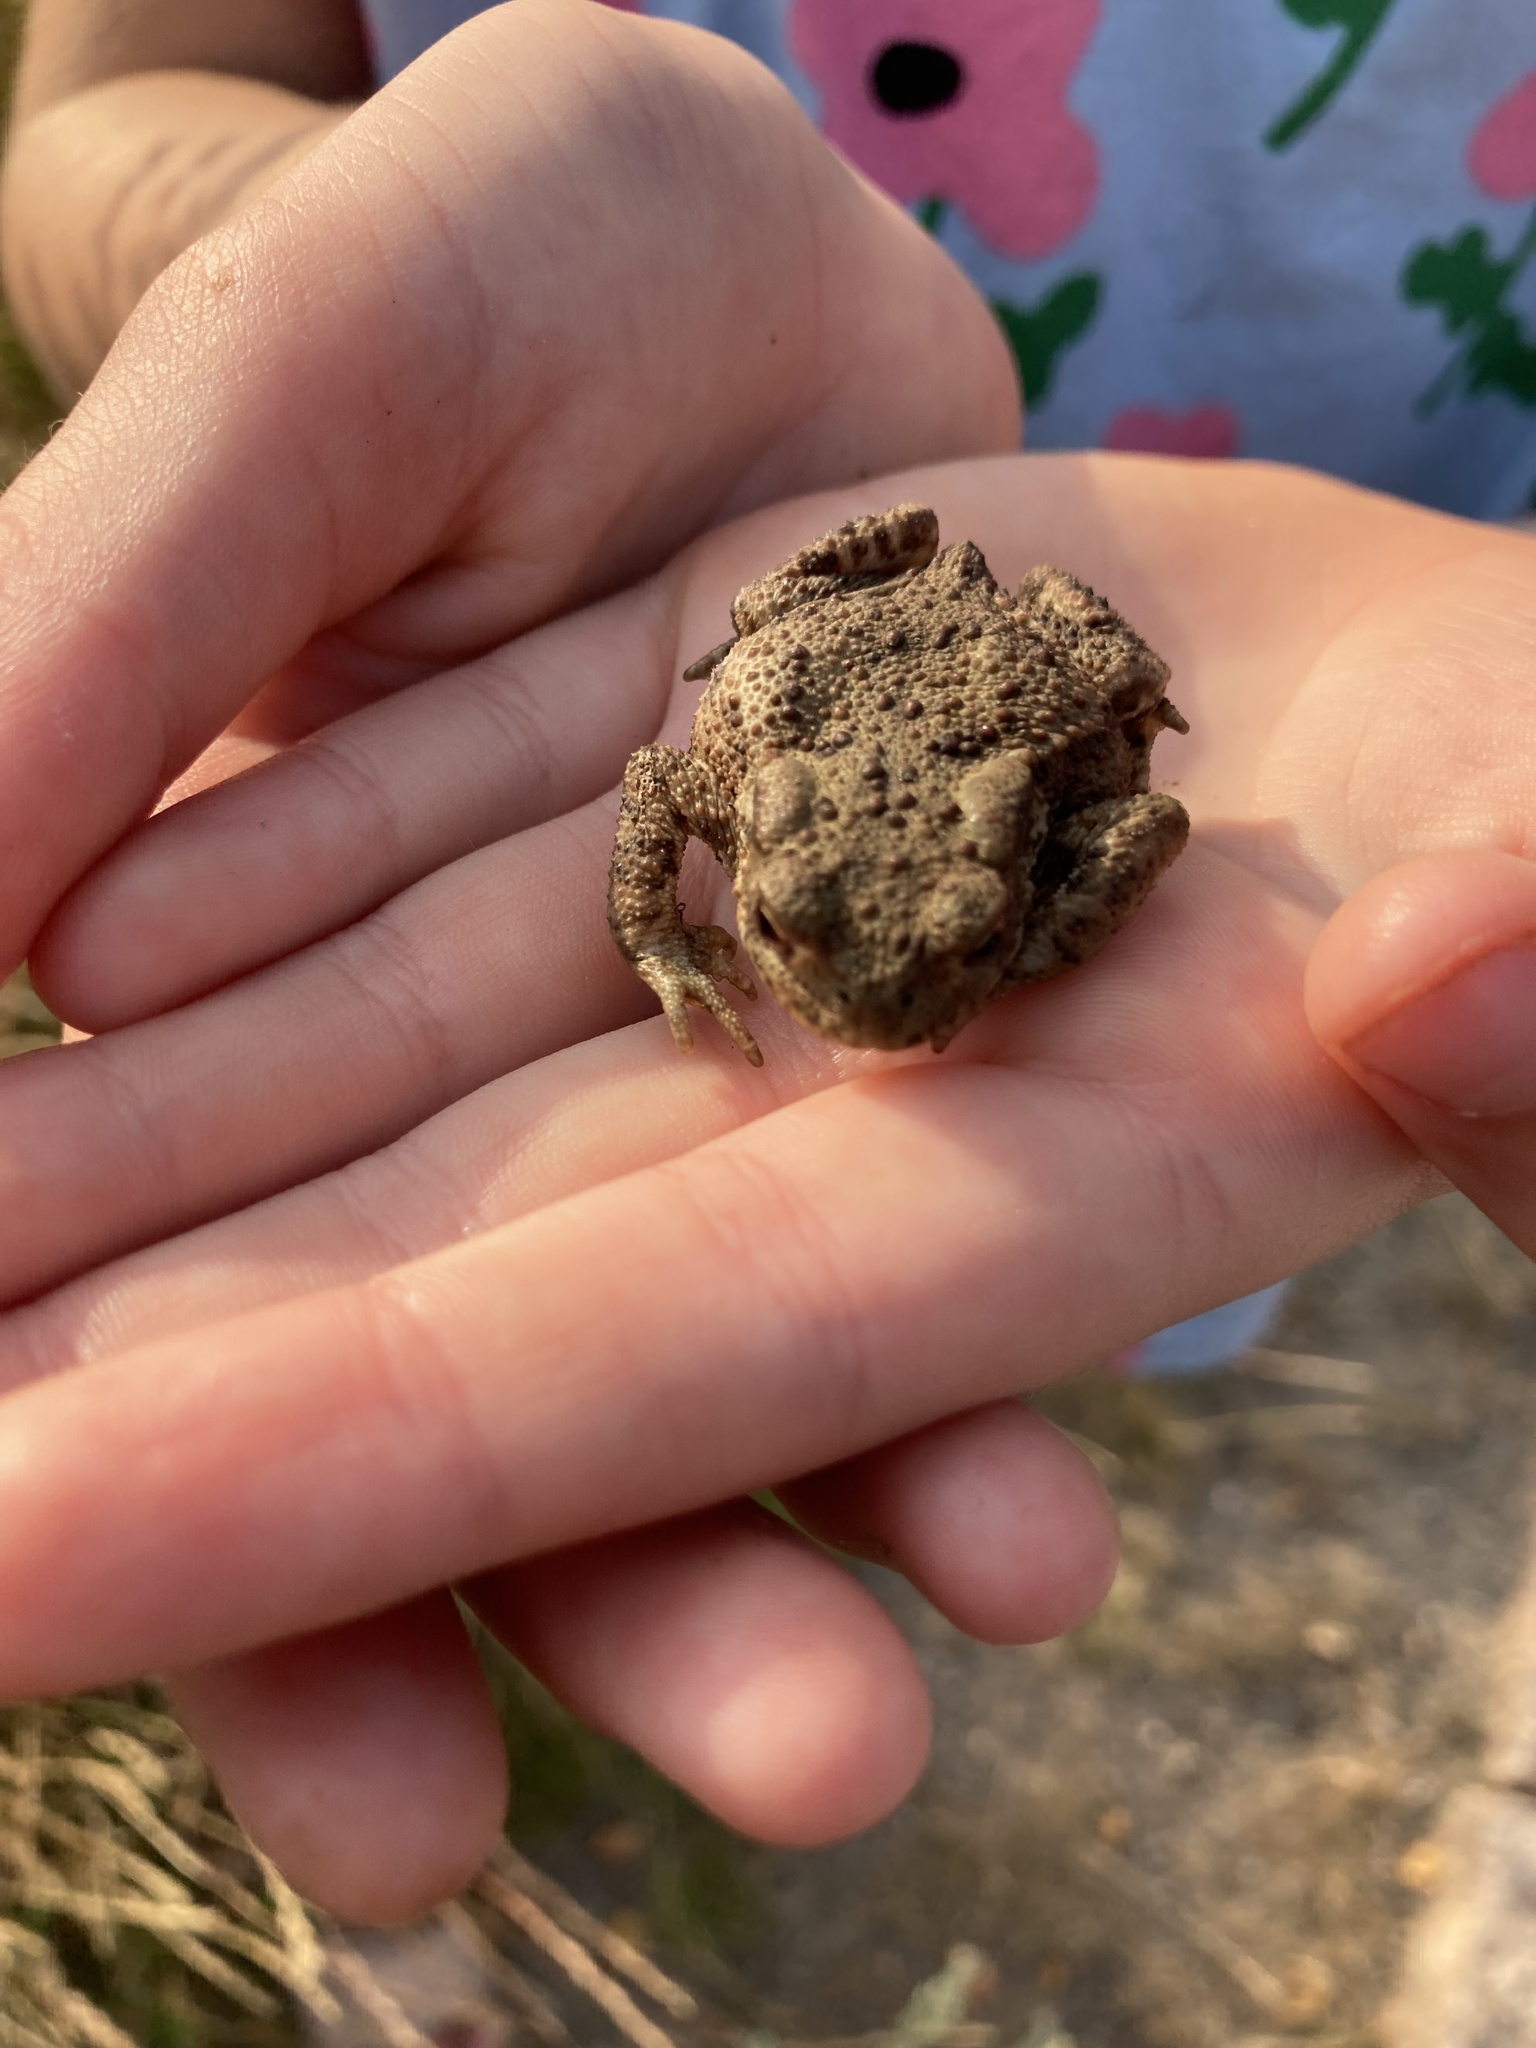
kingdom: Animalia
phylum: Chordata
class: Amphibia
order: Anura
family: Bufonidae
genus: Bufo
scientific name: Bufo bufo
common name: Common toad
